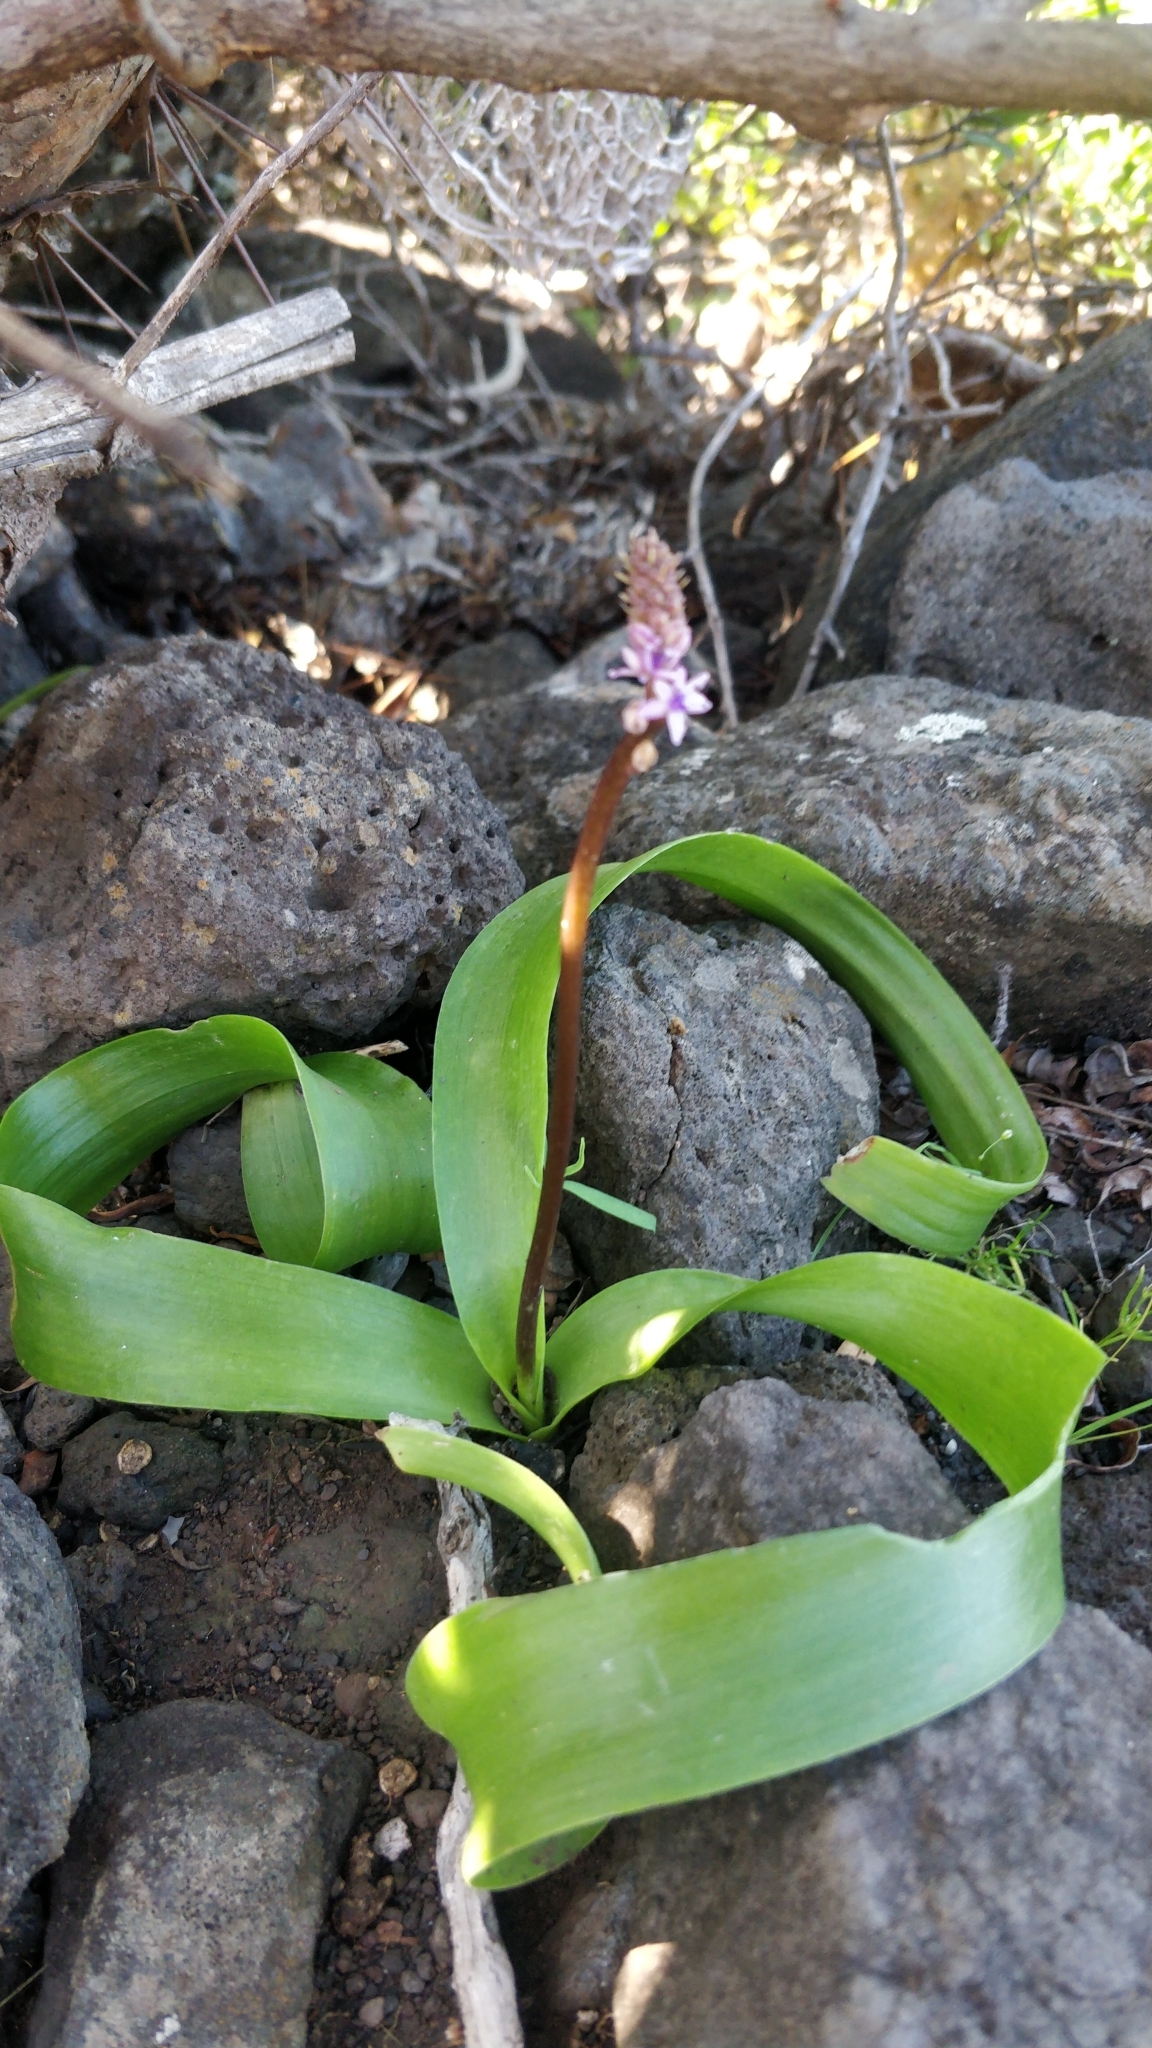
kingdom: Plantae
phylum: Tracheophyta
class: Liliopsida
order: Asparagales
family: Asparagaceae
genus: Scilla
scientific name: Scilla haemorrhoidalis
